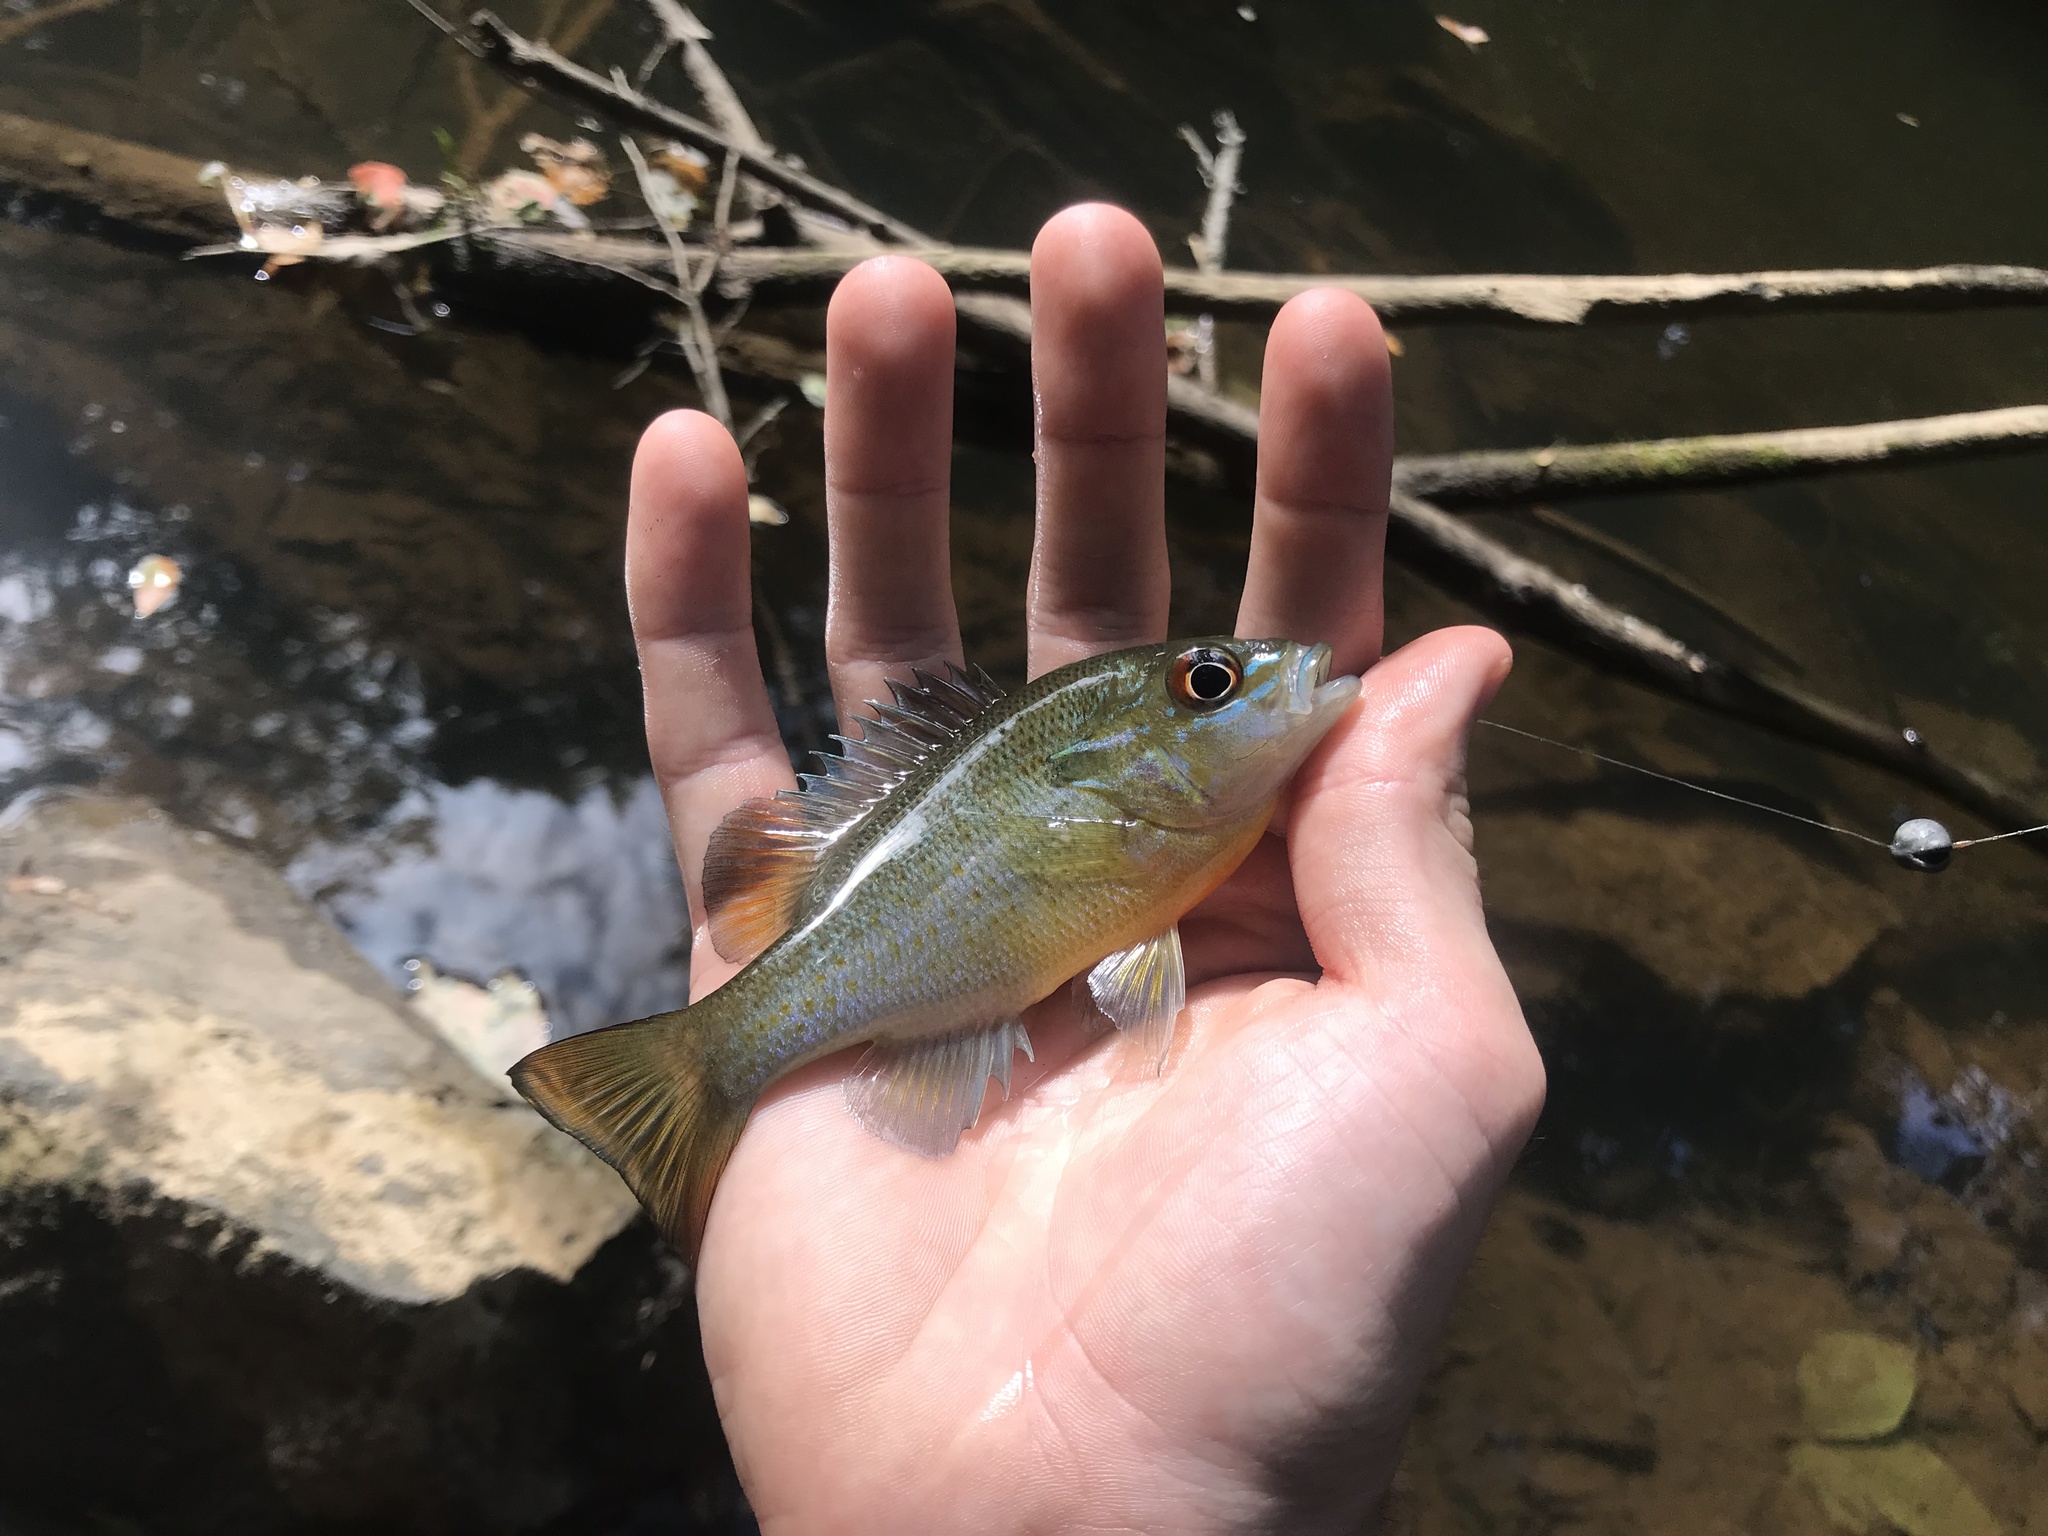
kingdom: Animalia
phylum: Chordata
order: Perciformes
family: Centrarchidae
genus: Lepomis
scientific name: Lepomis auritus
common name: Redbreast sunfish
